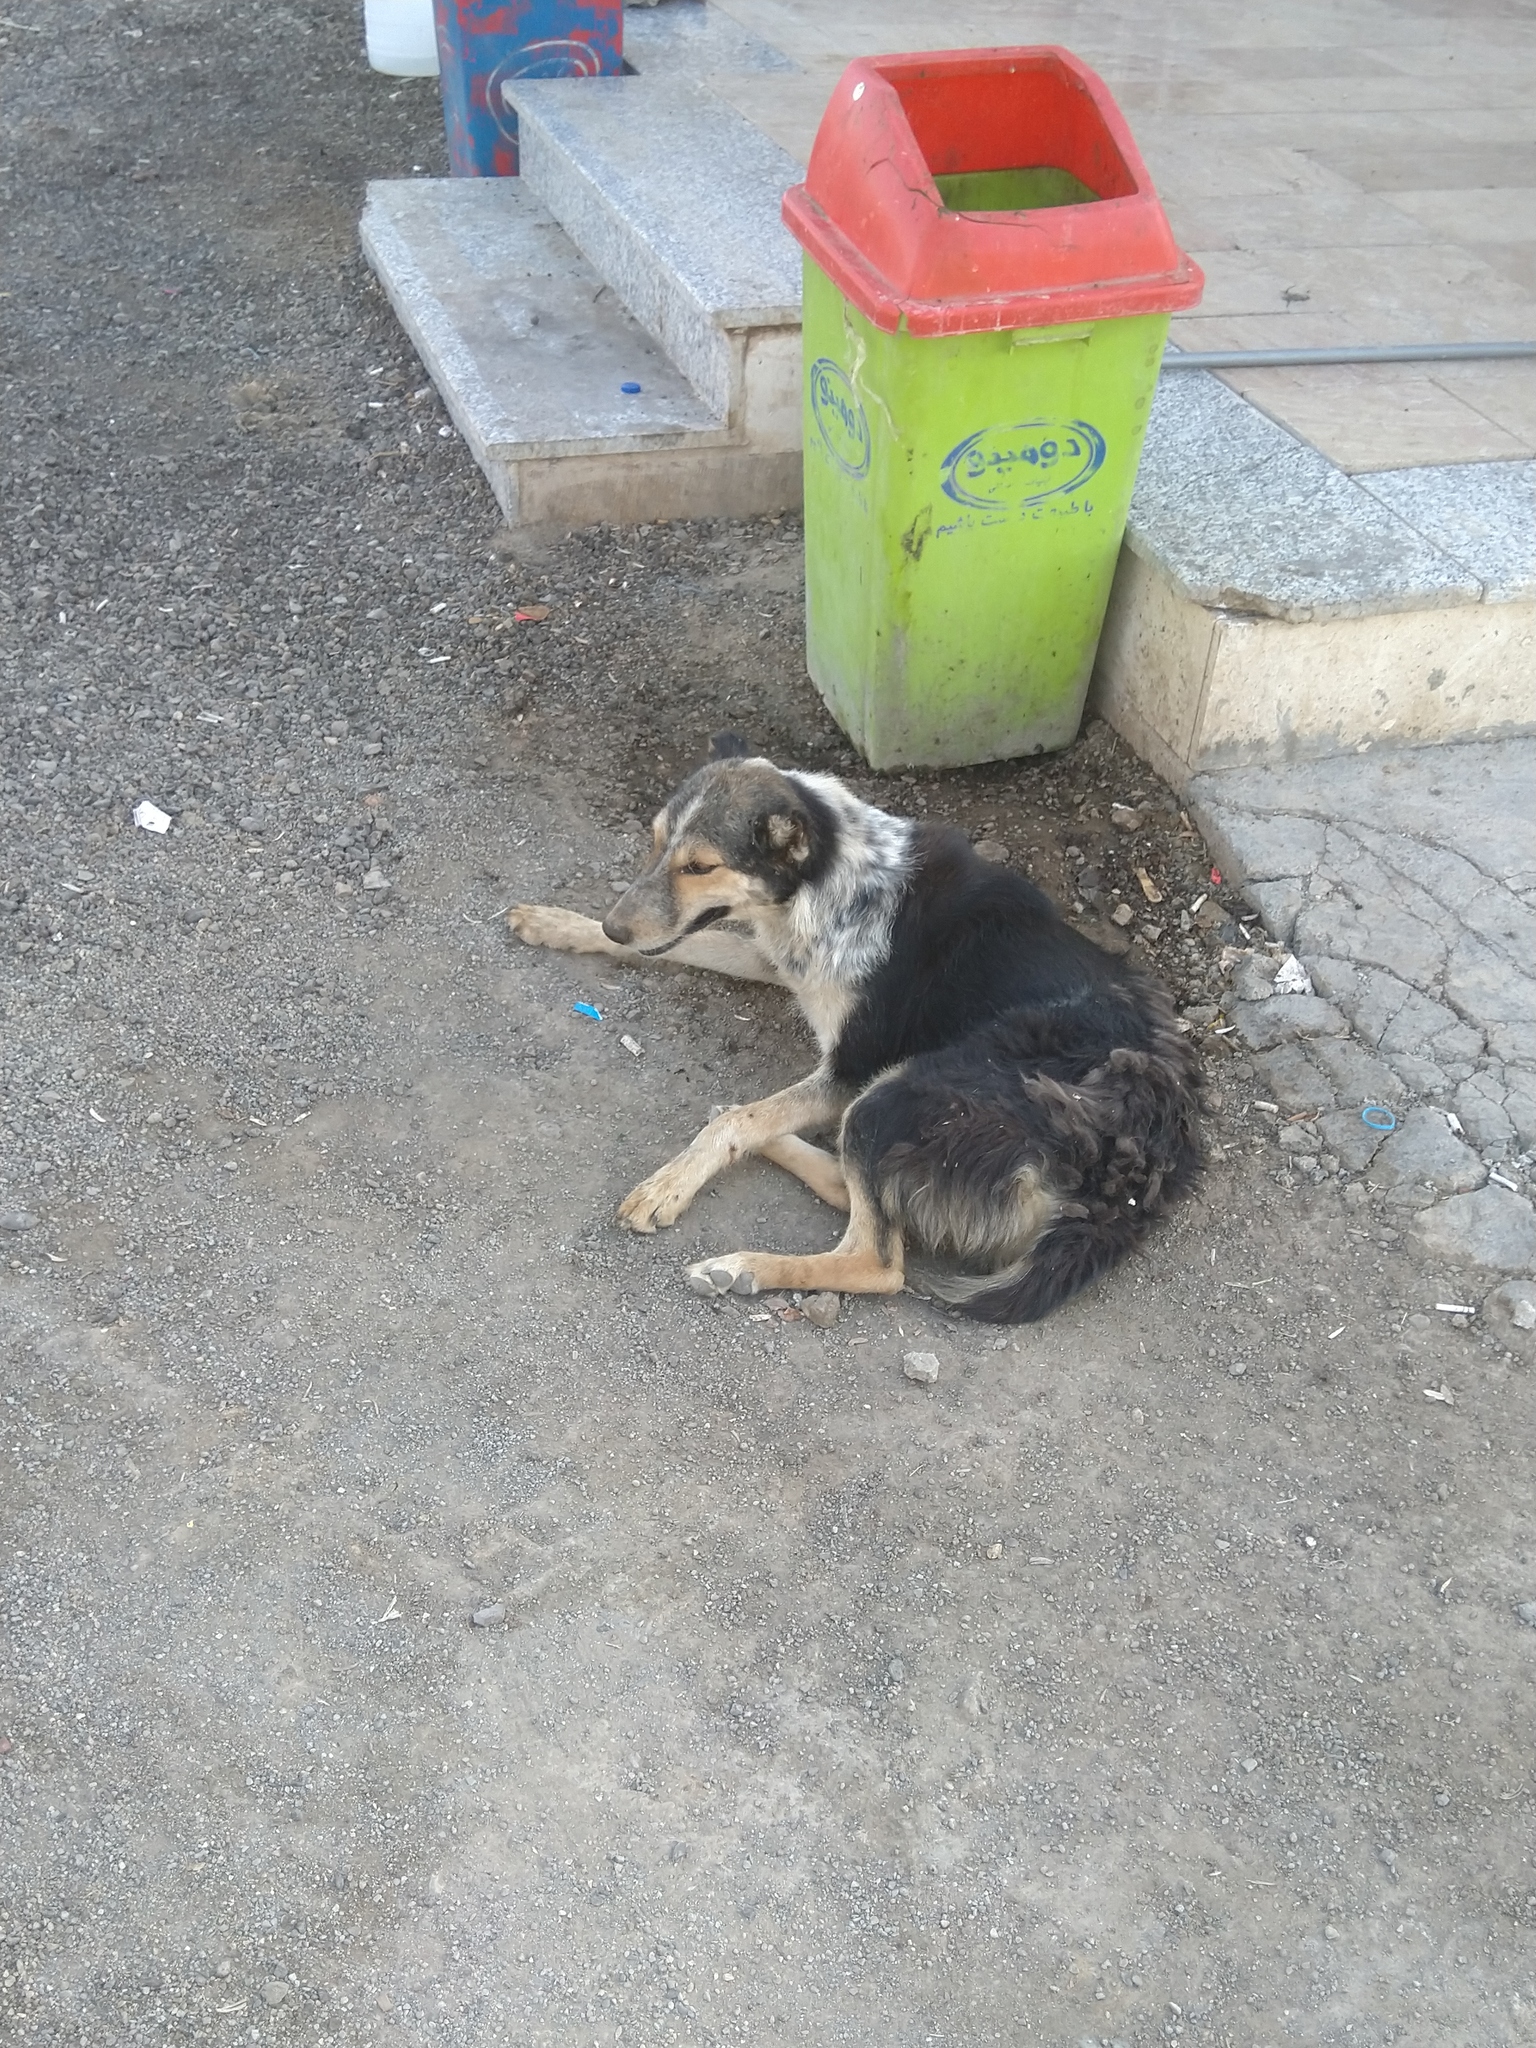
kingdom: Animalia
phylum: Chordata
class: Mammalia
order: Carnivora
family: Canidae
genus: Canis
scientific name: Canis lupus
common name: Gray wolf
